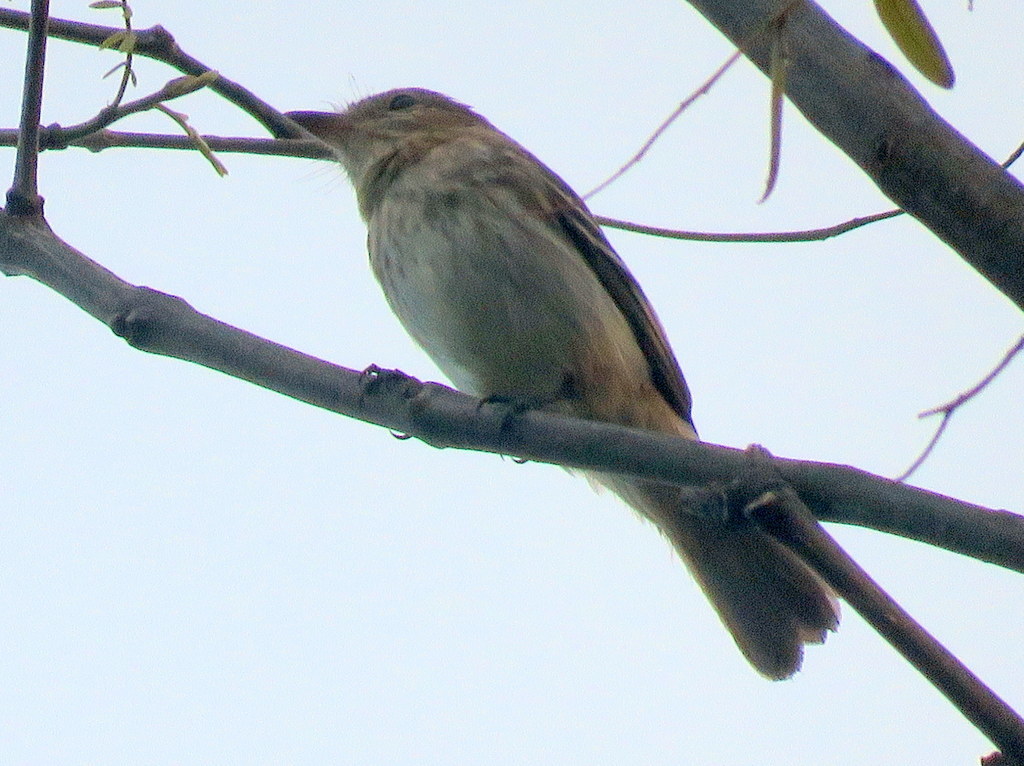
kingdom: Animalia
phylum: Chordata
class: Aves
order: Passeriformes
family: Tyrannidae
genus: Myiophobus
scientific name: Myiophobus fasciatus
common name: Bran-colored flycatcher
